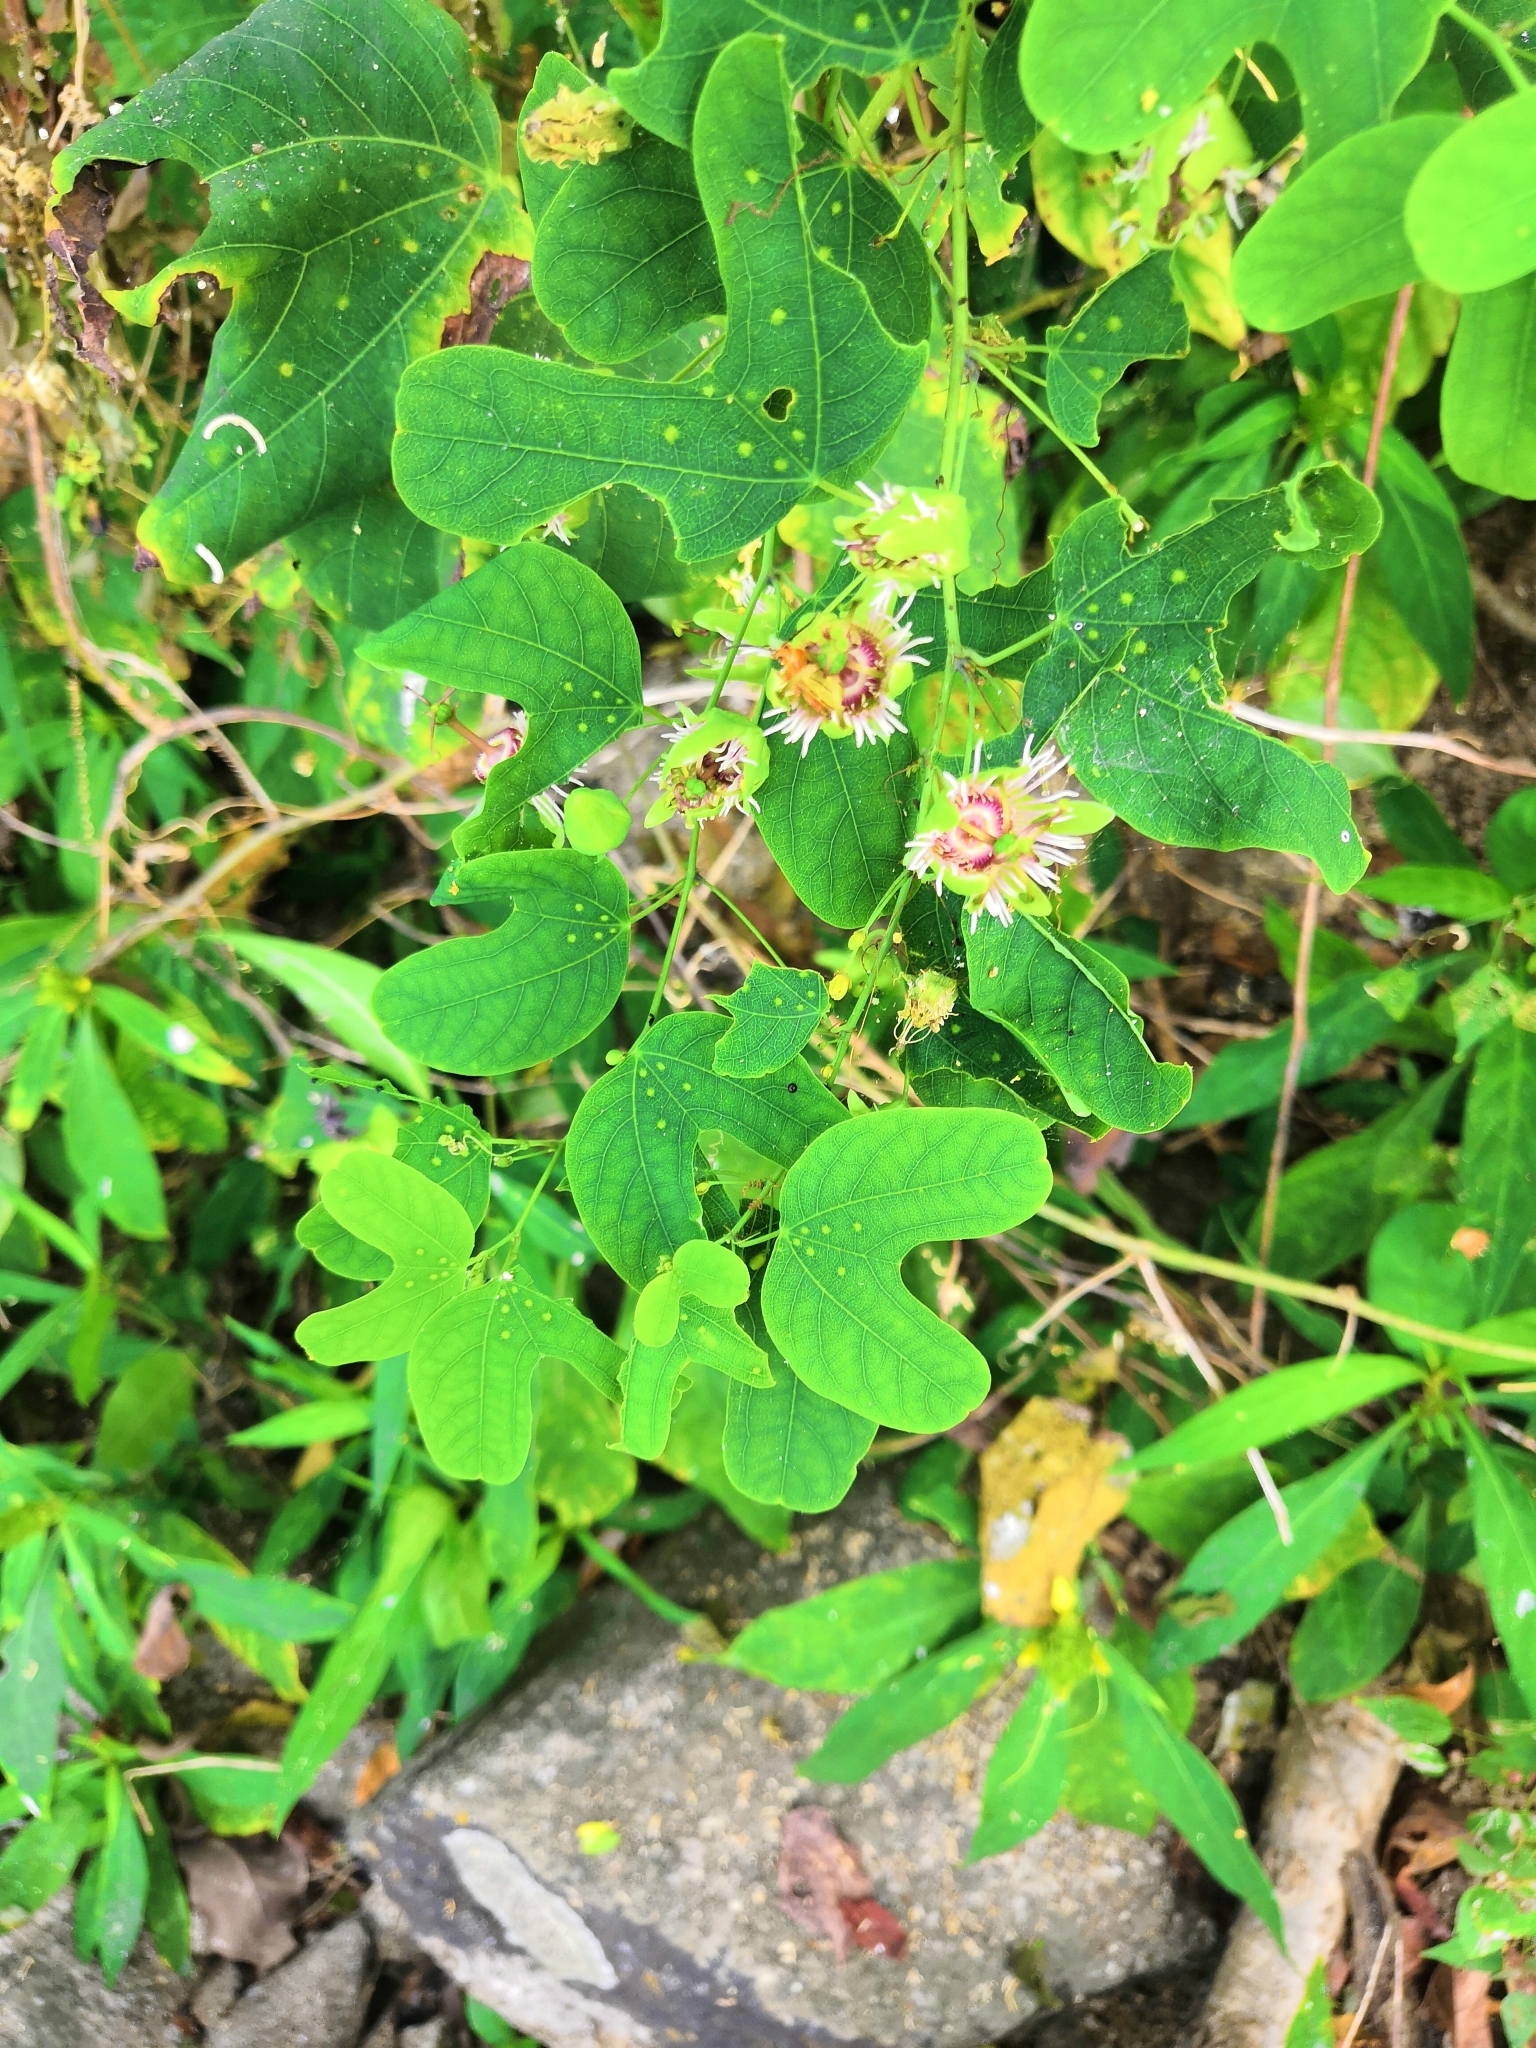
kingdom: Plantae
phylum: Tracheophyta
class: Magnoliopsida
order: Malpighiales
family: Passifloraceae
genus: Passiflora
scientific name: Passiflora mexicana
